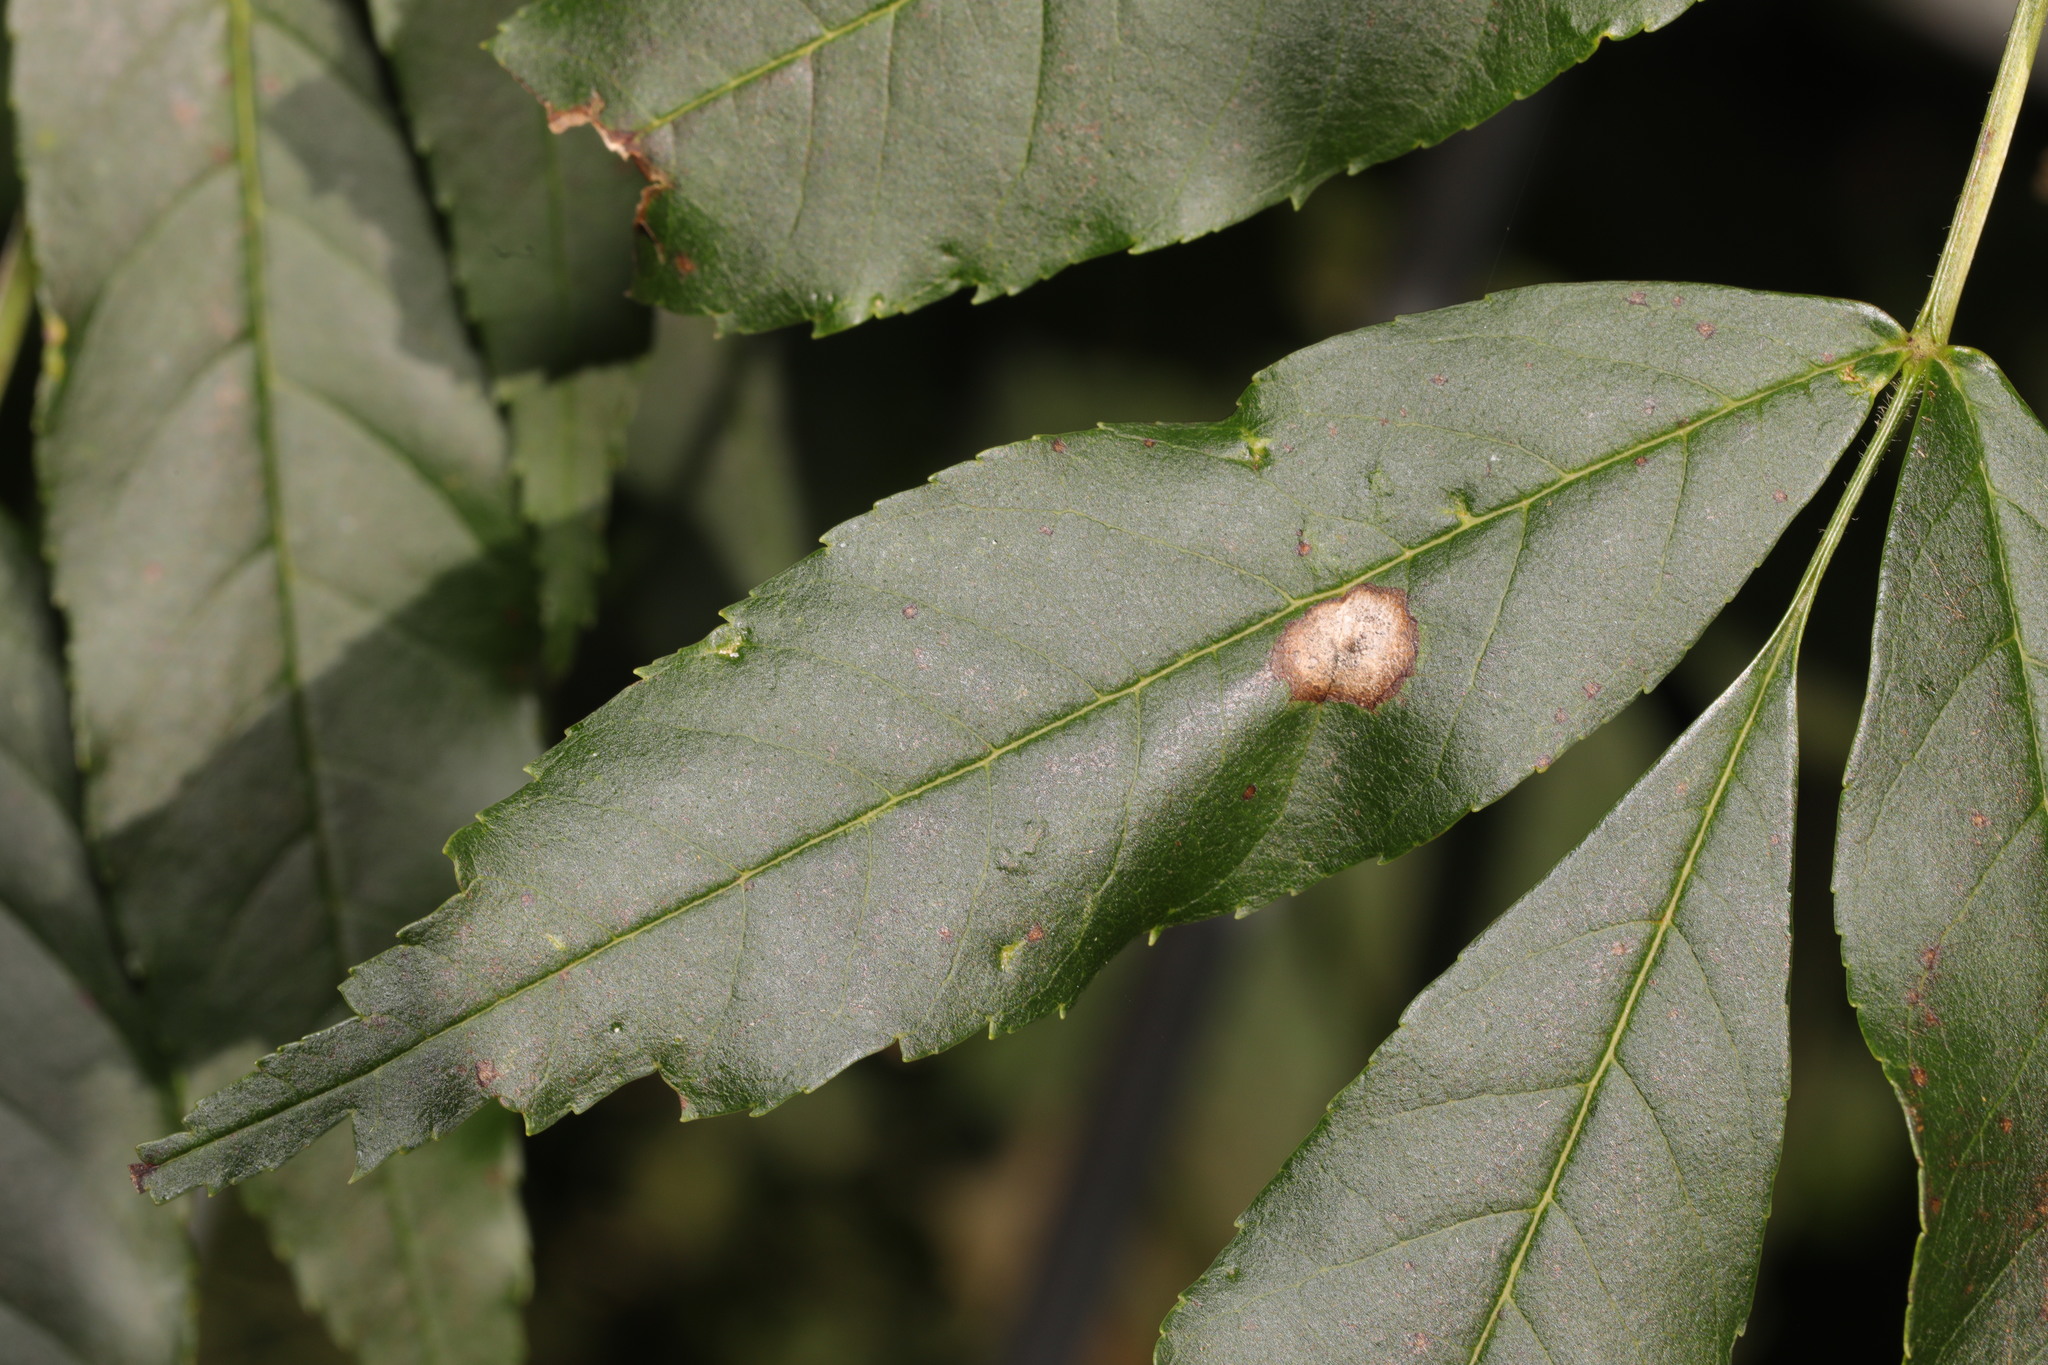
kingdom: Animalia
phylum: Arthropoda
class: Insecta
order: Diptera
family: Cecidomyiidae
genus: Dasineura
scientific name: Dasineura fraxinea
